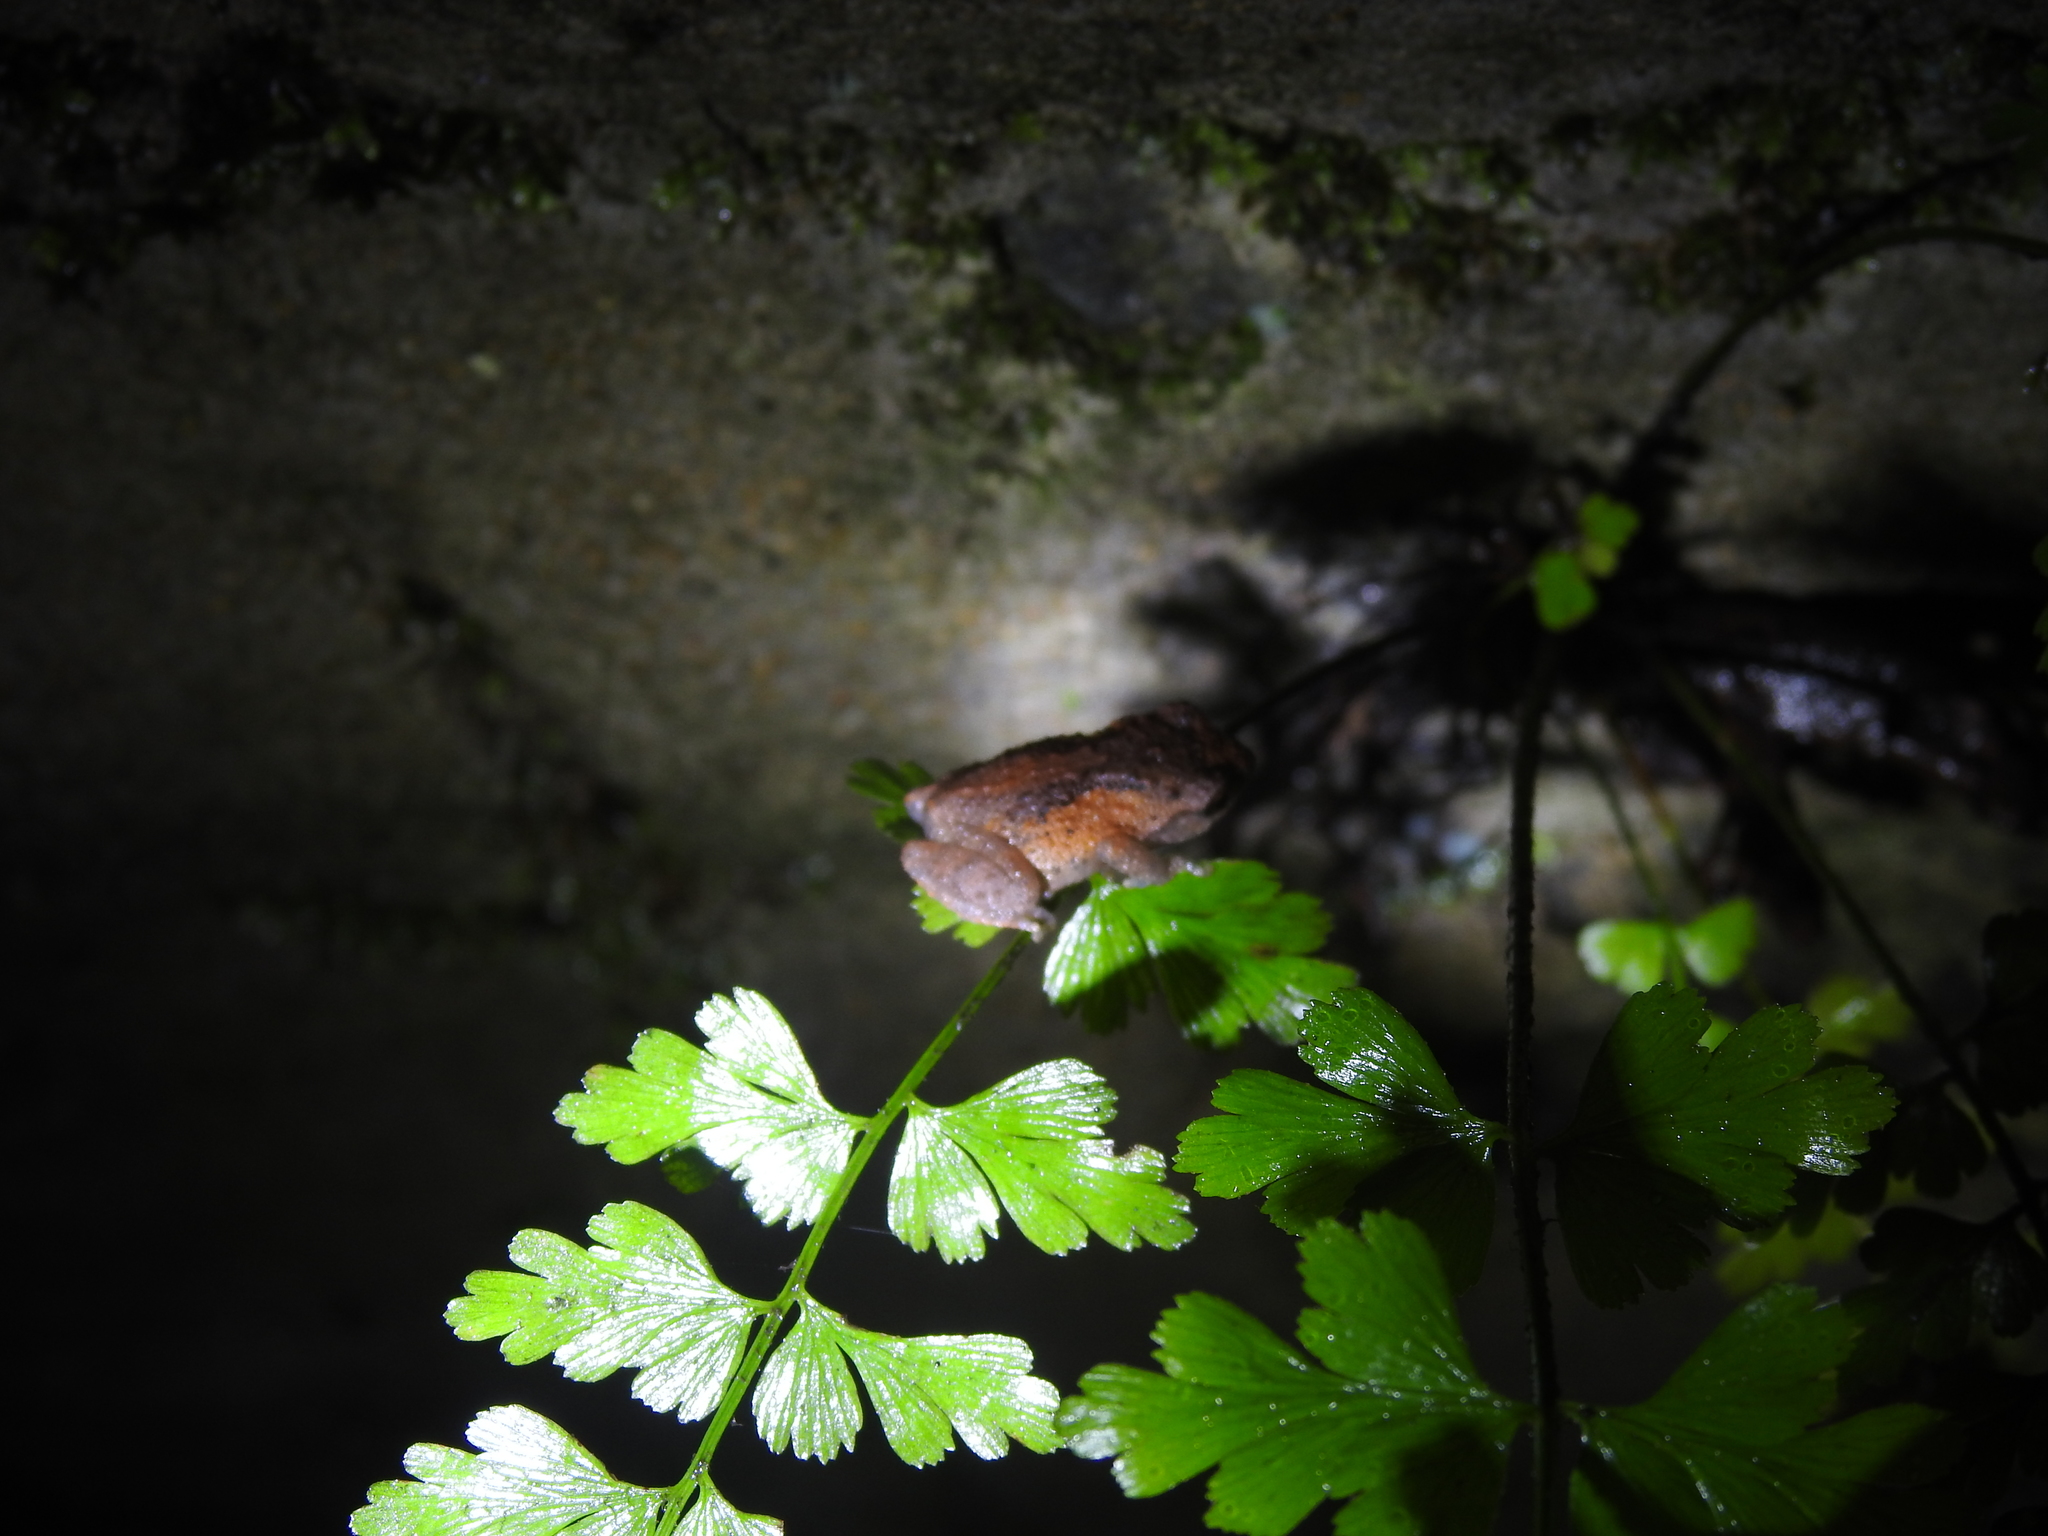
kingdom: Animalia
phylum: Chordata
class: Amphibia
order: Anura
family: Rhacophoridae
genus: Raorchestes
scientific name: Raorchestes dubois
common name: Koadaikanal bush frog
